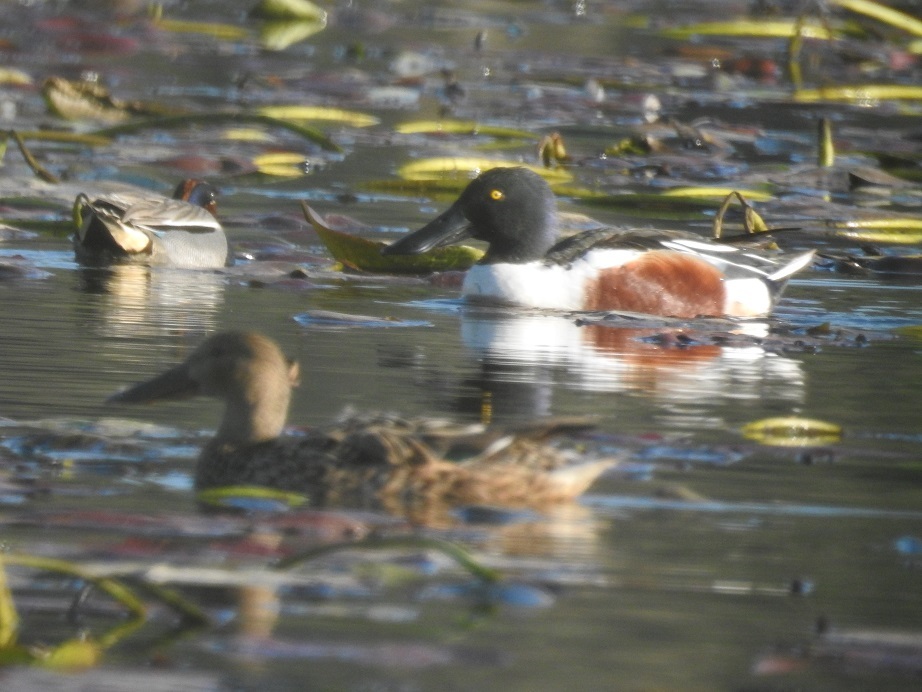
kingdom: Animalia
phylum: Chordata
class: Aves
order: Anseriformes
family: Anatidae
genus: Spatula
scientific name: Spatula clypeata
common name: Northern shoveler
